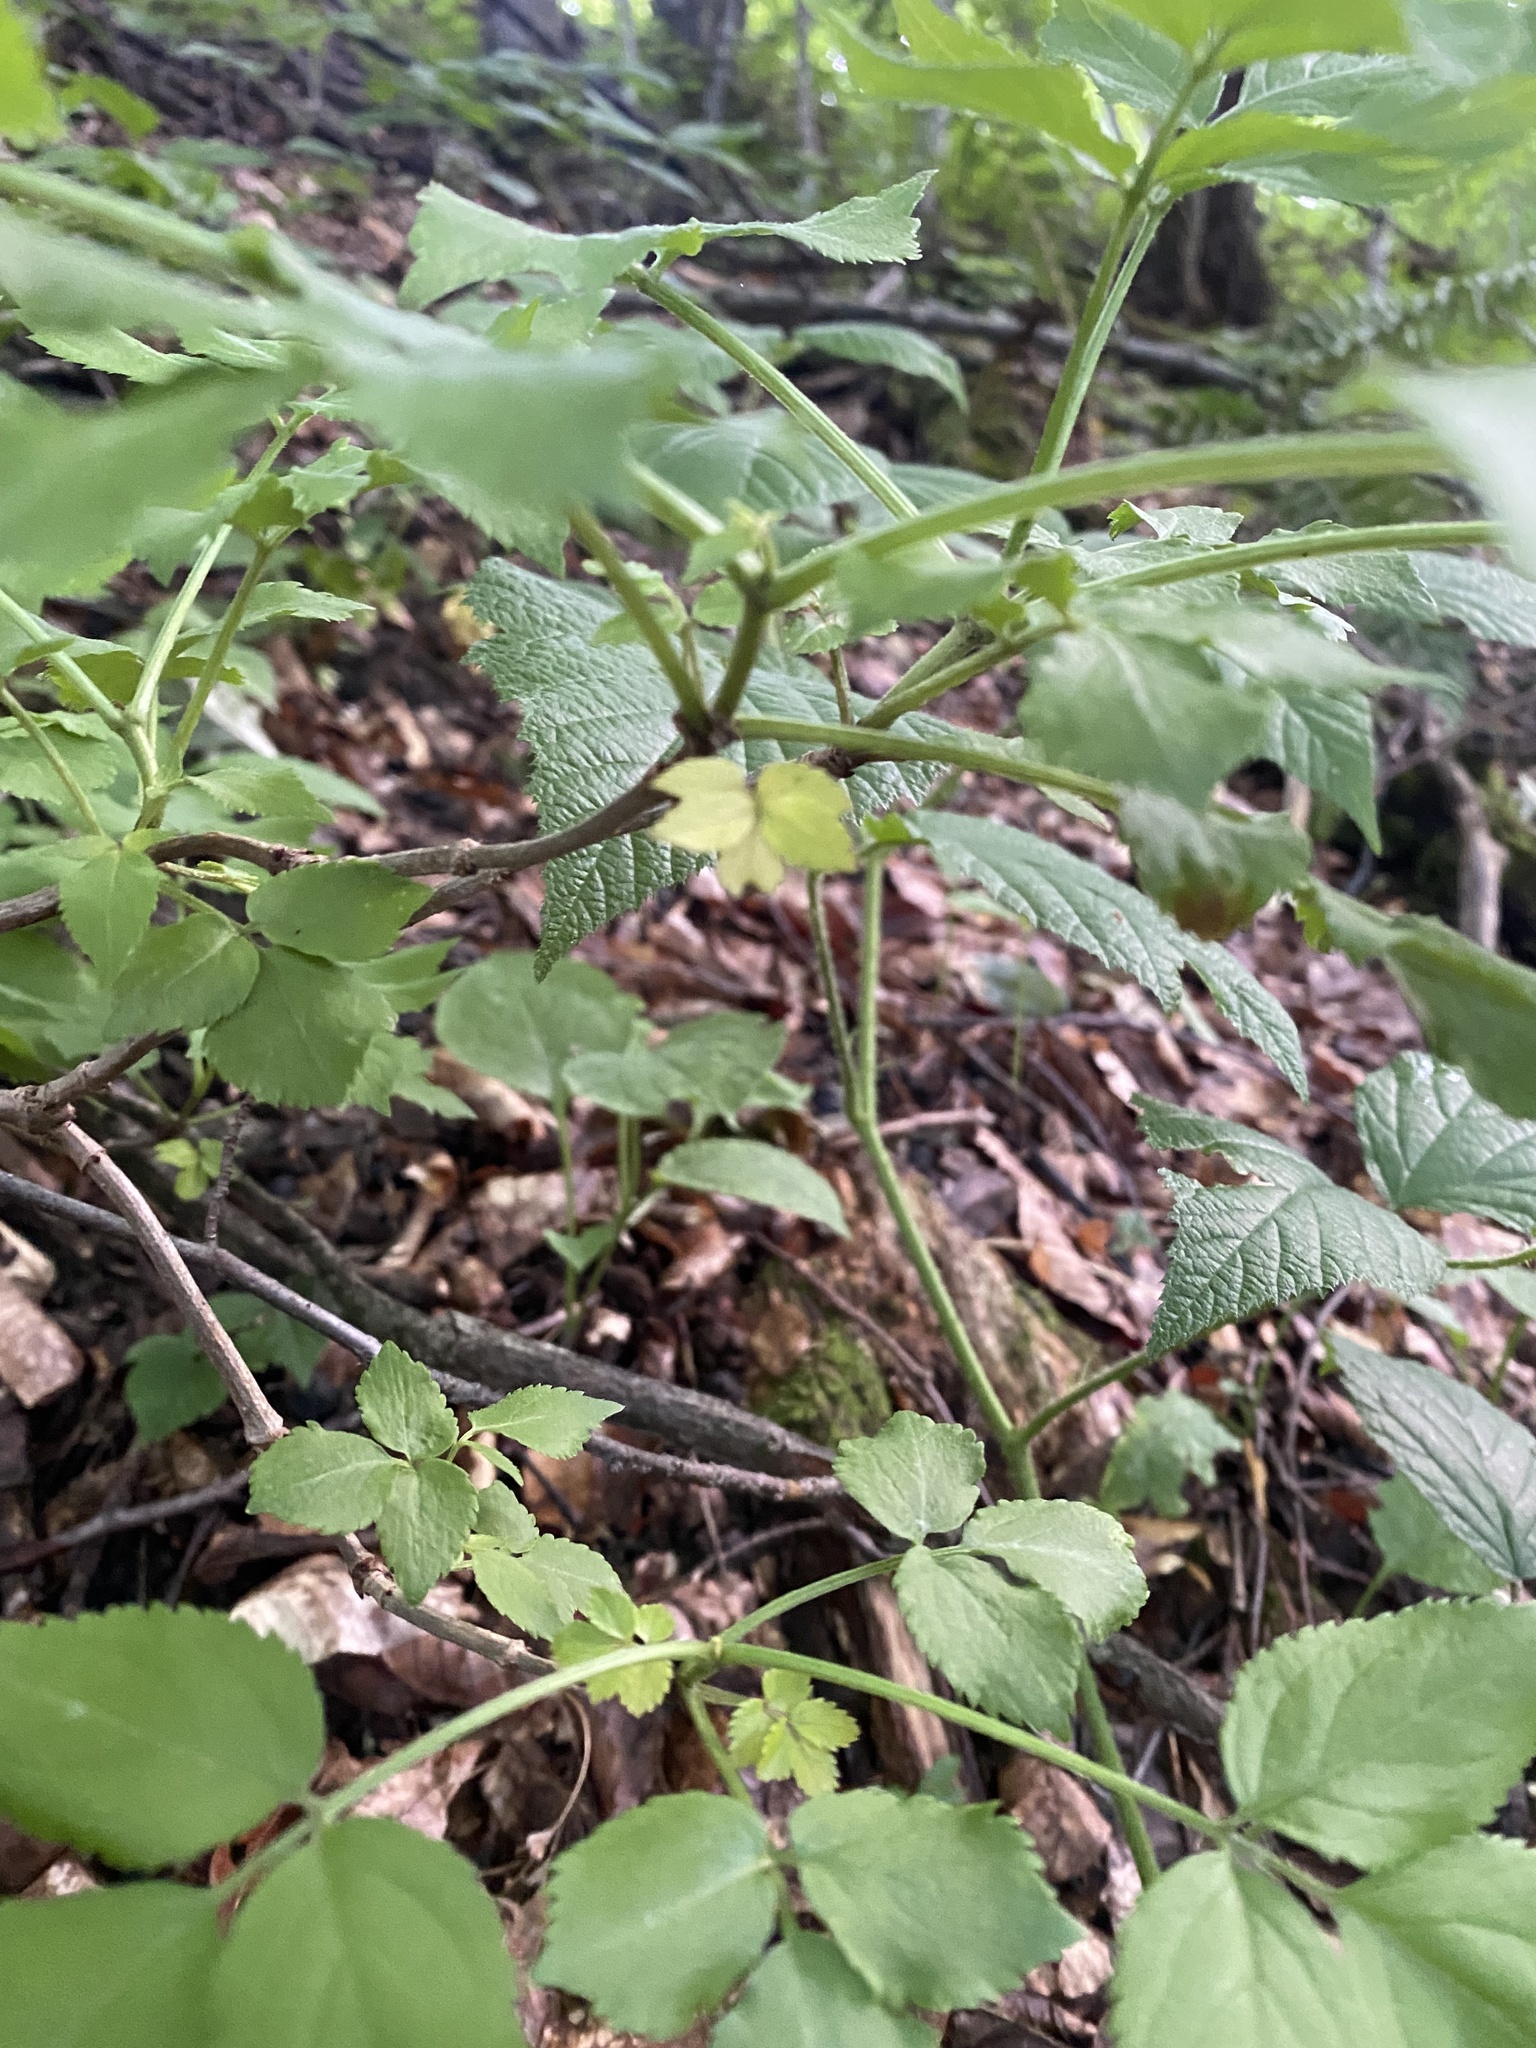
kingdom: Plantae
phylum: Tracheophyta
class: Magnoliopsida
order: Dipsacales
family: Viburnaceae
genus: Sambucus
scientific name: Sambucus nigra
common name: Elder
